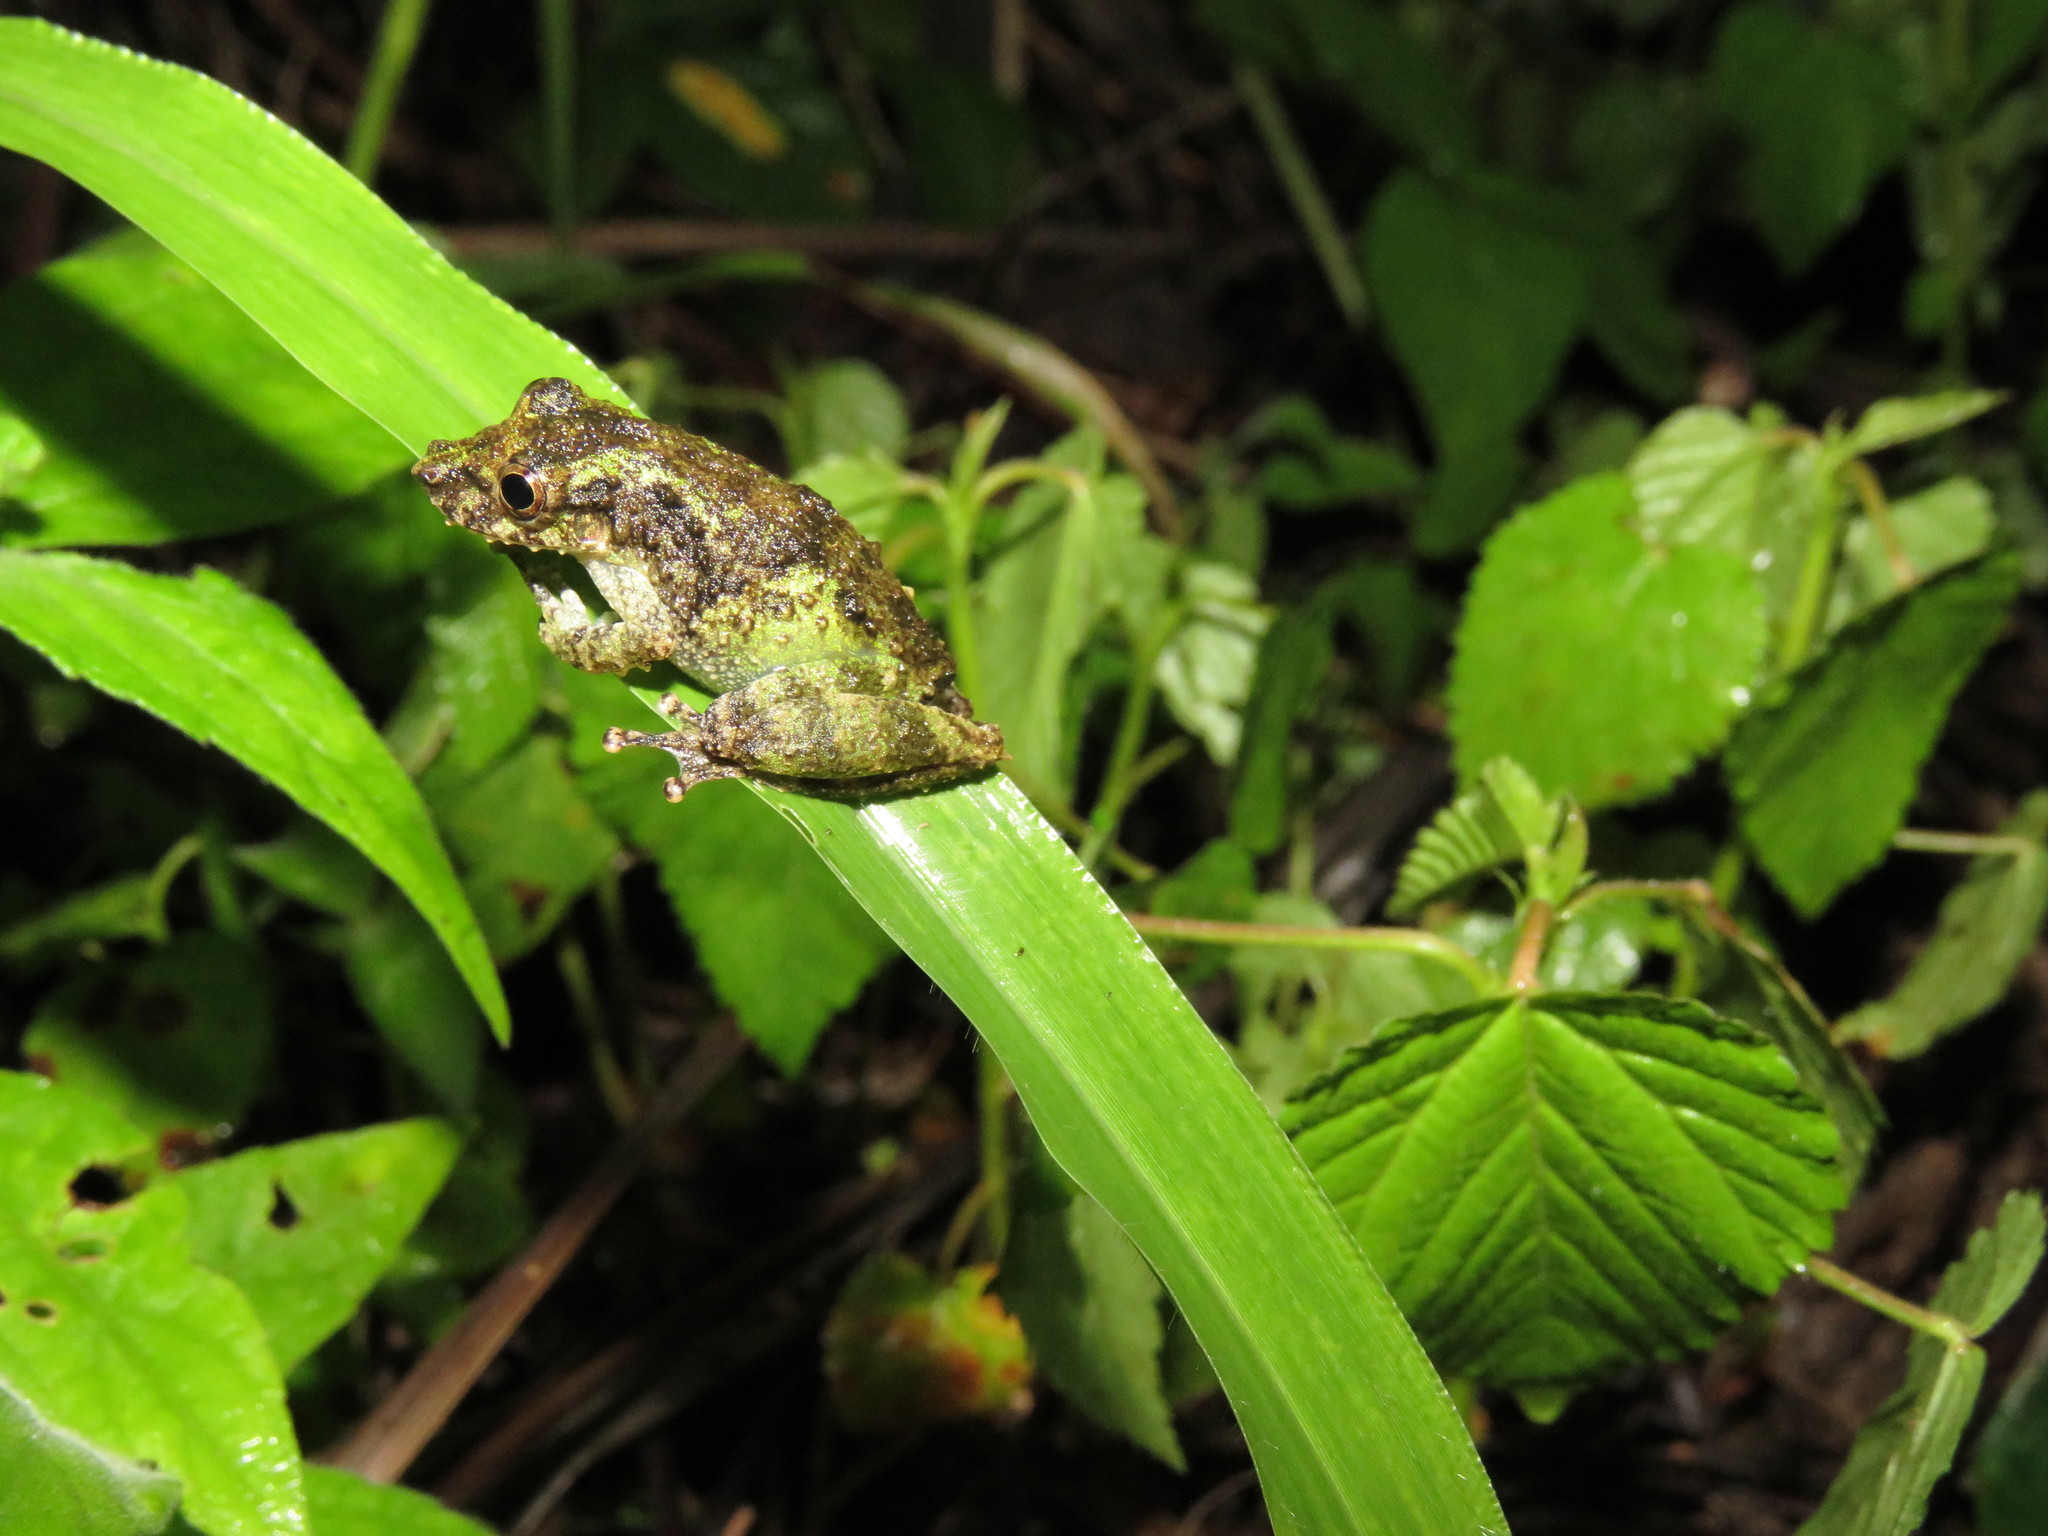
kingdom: Animalia
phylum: Chordata
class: Amphibia
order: Anura
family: Hylidae
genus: Scinax
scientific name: Scinax garbei
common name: Eirunepe snouted treefrog
